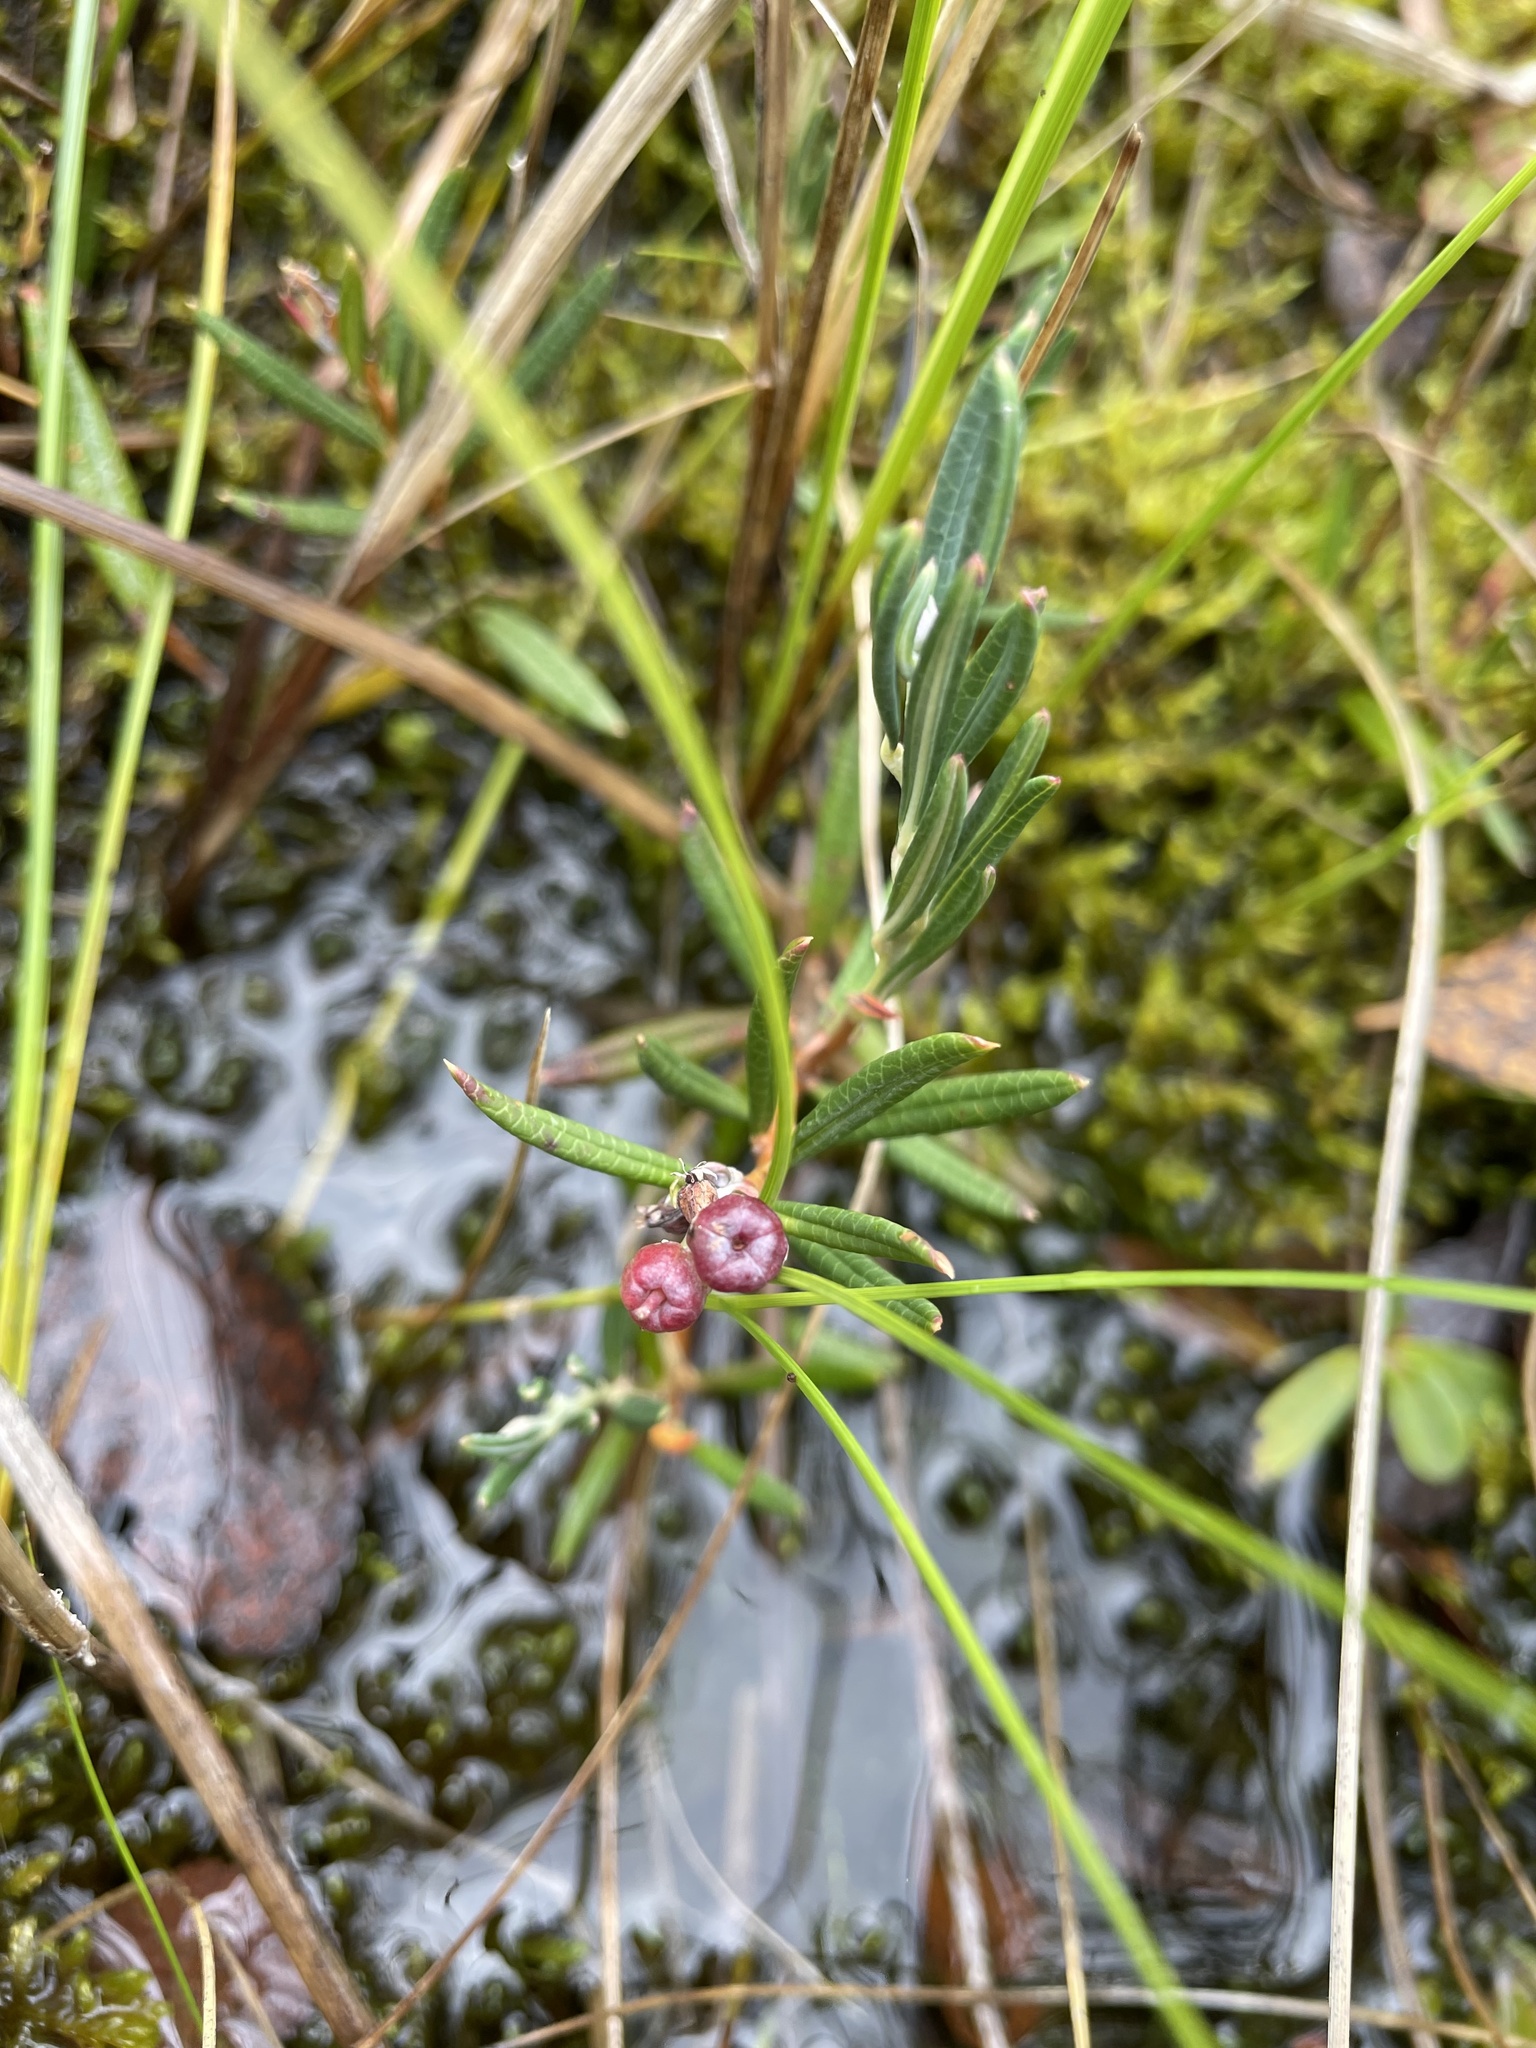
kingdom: Plantae
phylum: Tracheophyta
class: Magnoliopsida
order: Ericales
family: Ericaceae
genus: Andromeda
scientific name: Andromeda polifolia
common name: Bog-rosemary
